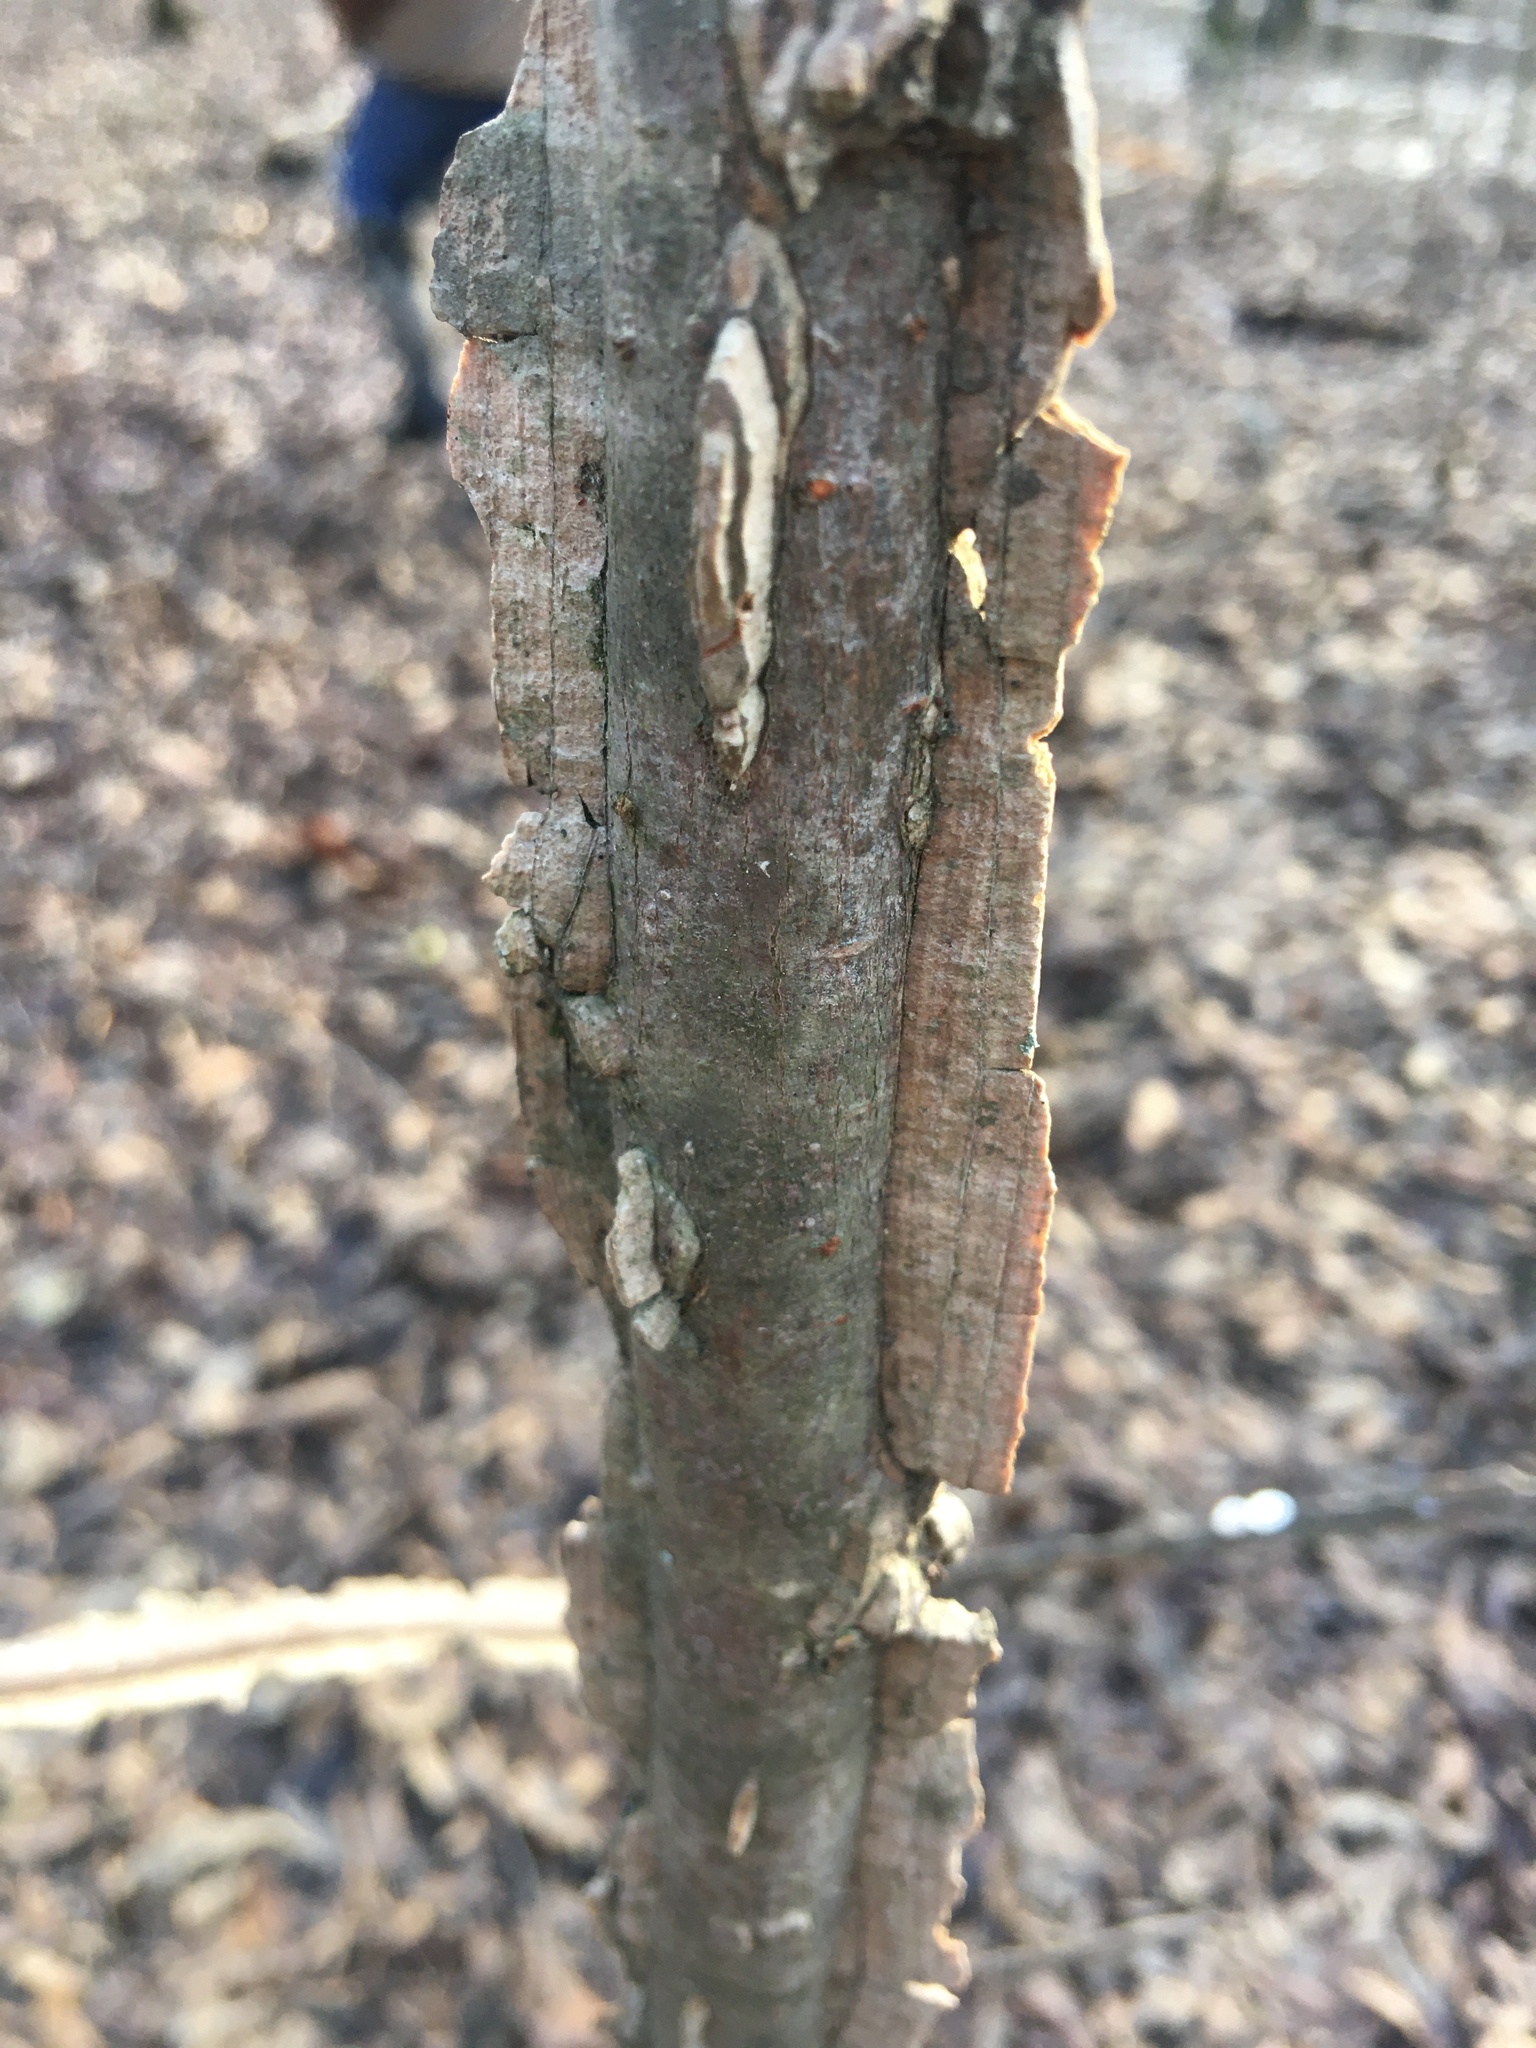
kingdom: Plantae
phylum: Tracheophyta
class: Magnoliopsida
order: Rosales
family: Ulmaceae
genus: Ulmus
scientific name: Ulmus alata
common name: Winged elm
